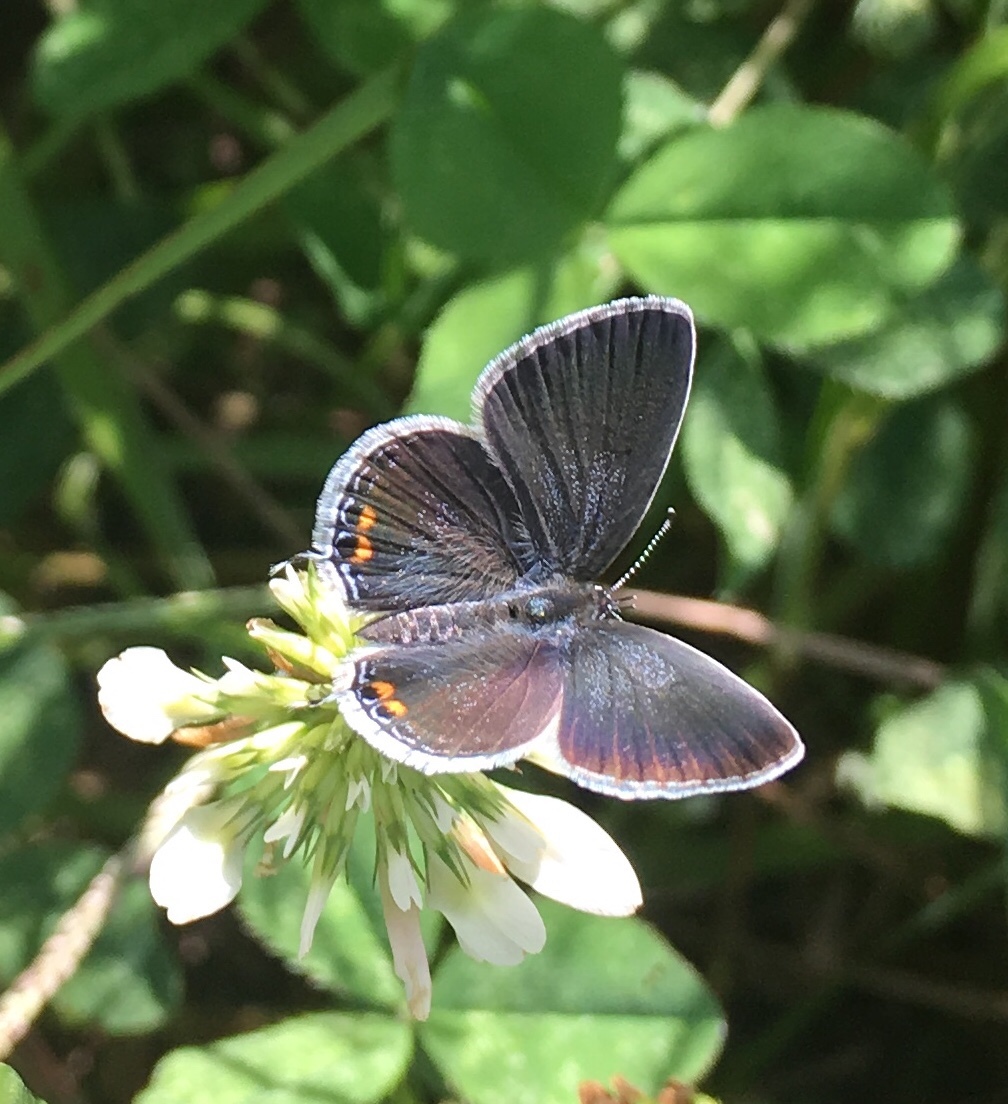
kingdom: Animalia
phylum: Arthropoda
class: Insecta
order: Lepidoptera
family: Lycaenidae
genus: Elkalyce
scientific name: Elkalyce comyntas
